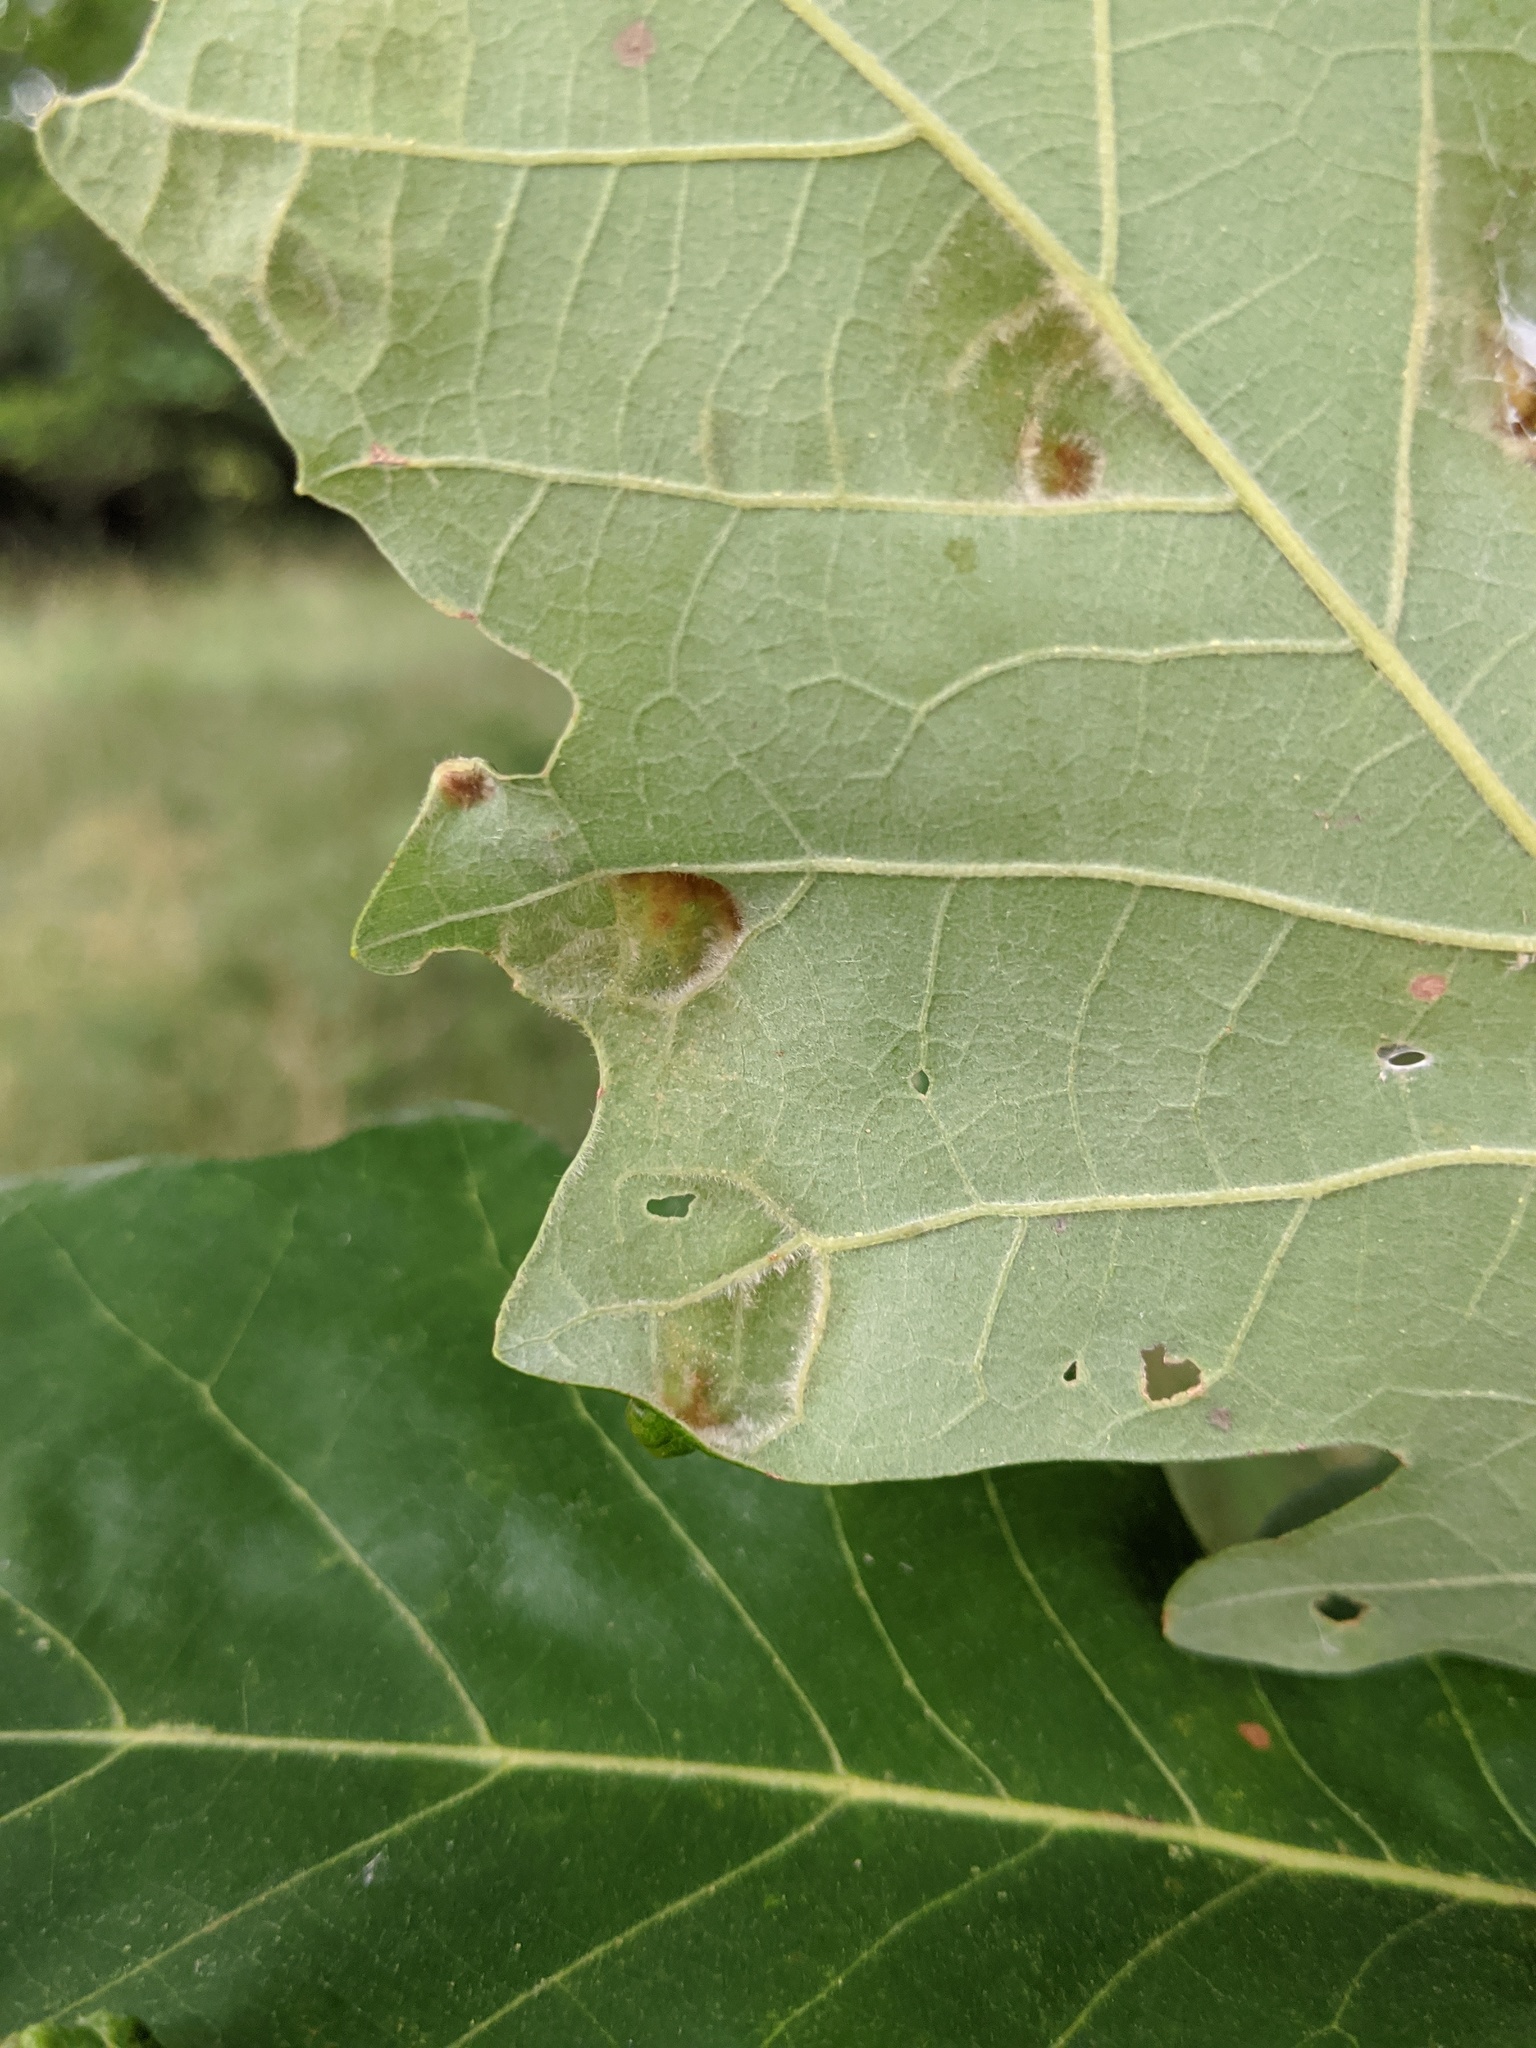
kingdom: Animalia
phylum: Arthropoda
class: Arachnida
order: Trombidiformes
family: Eriophyidae
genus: Aceria
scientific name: Aceria quercina
